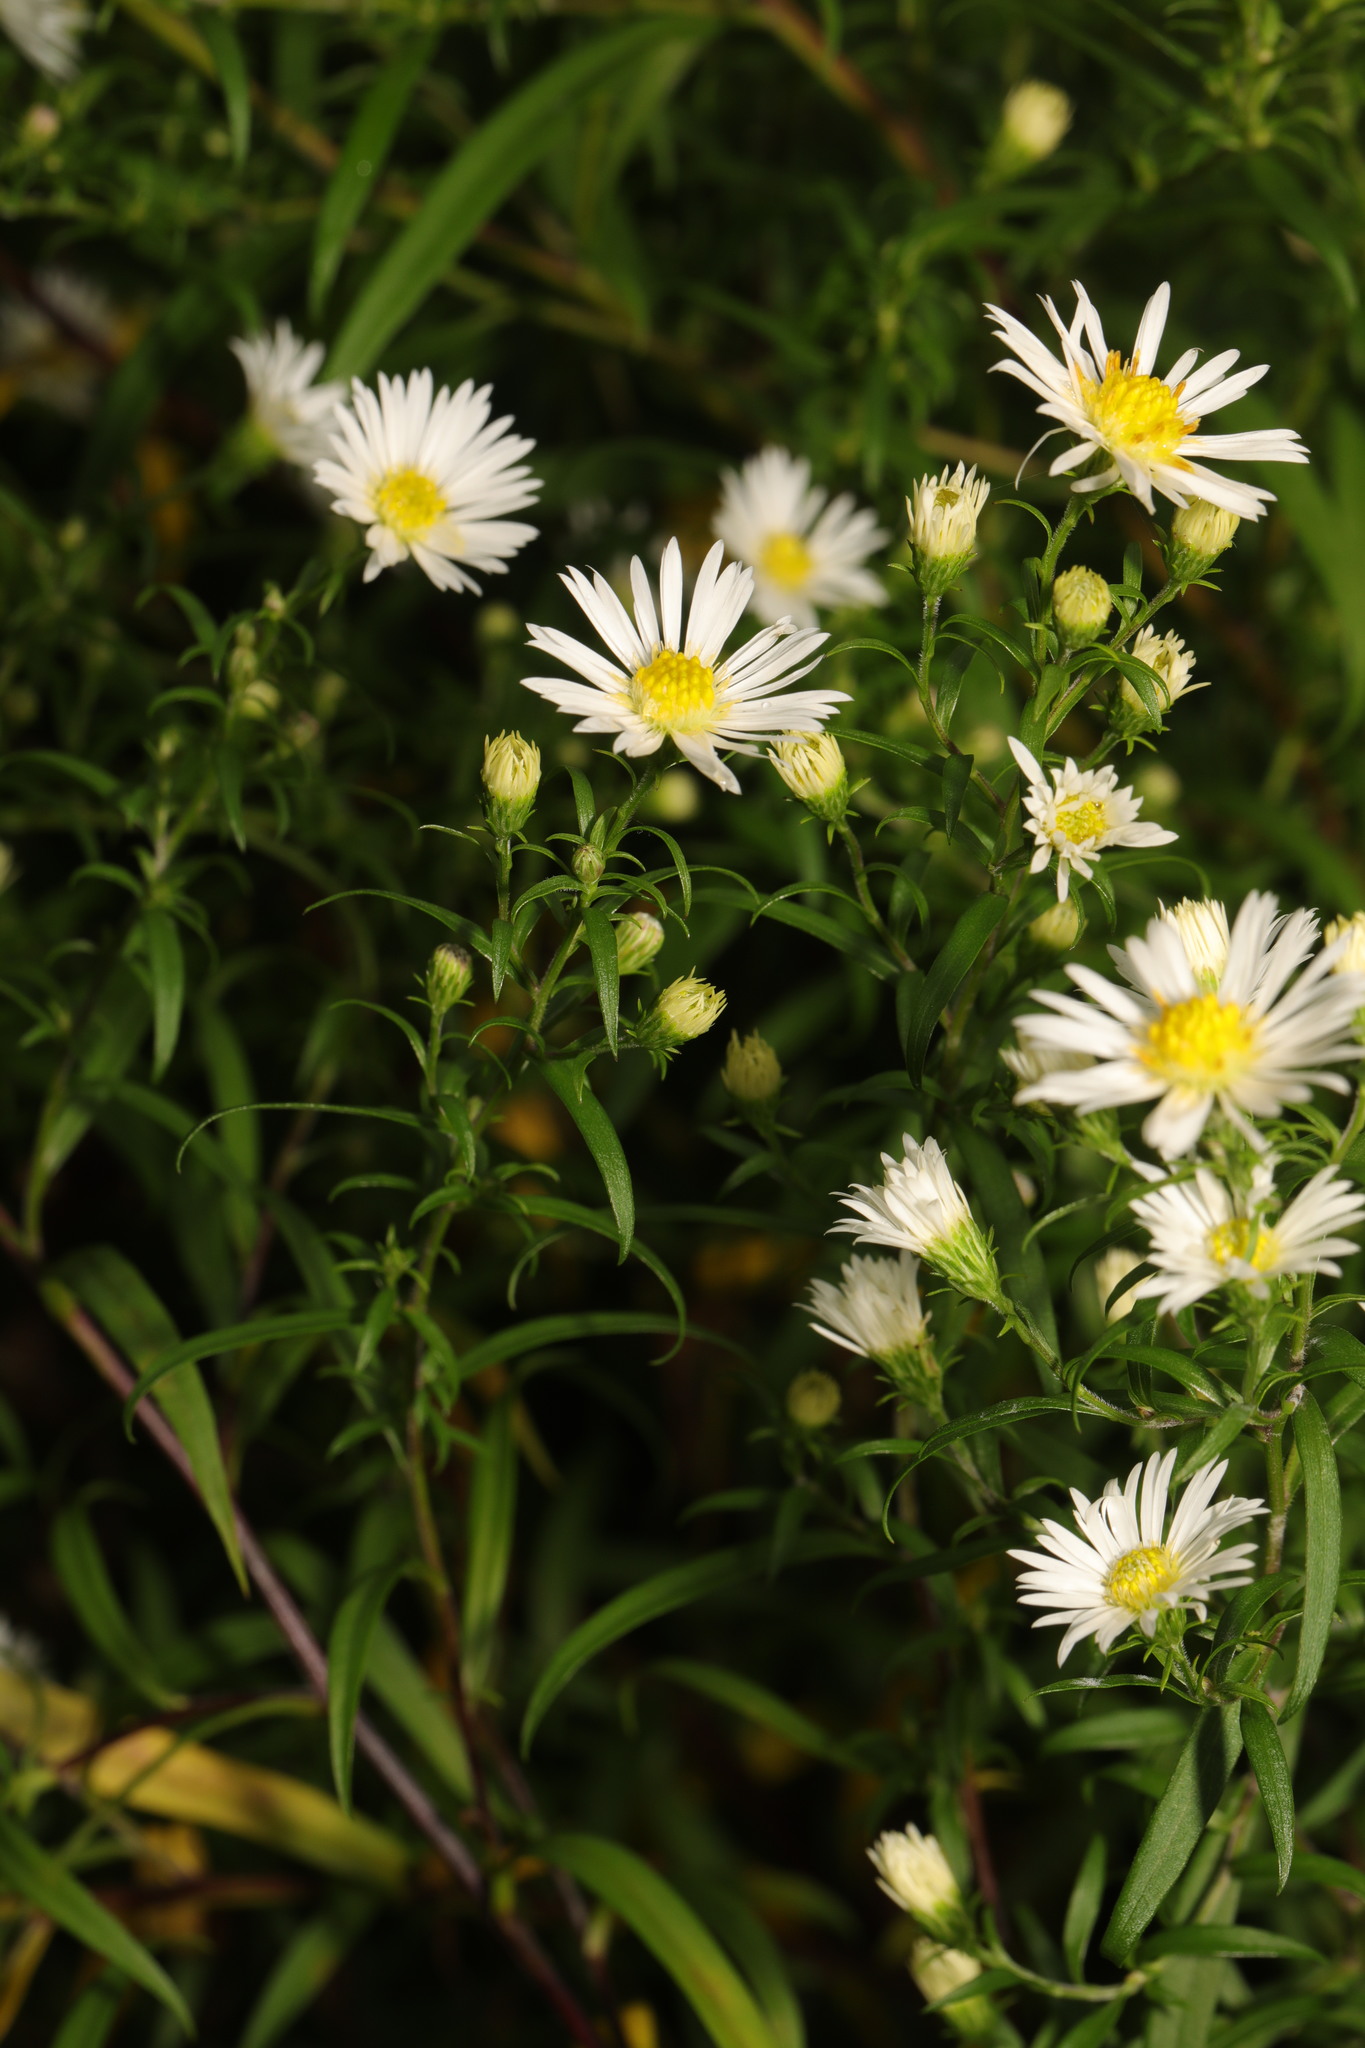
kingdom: Plantae
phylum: Tracheophyta
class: Magnoliopsida
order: Asterales
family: Asteraceae
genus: Symphyotrichum
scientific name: Symphyotrichum
